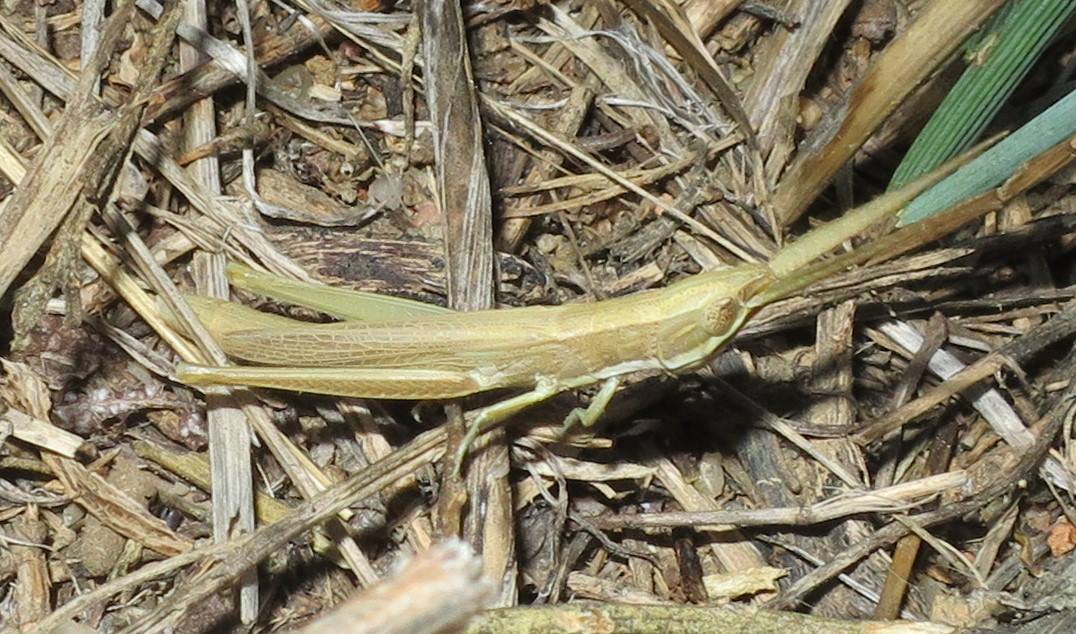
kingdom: Animalia
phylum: Arthropoda
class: Insecta
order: Orthoptera
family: Acrididae
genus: Paropomala
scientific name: Paropomala wyomingensis
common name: Wyoming toothpick grasshopper
